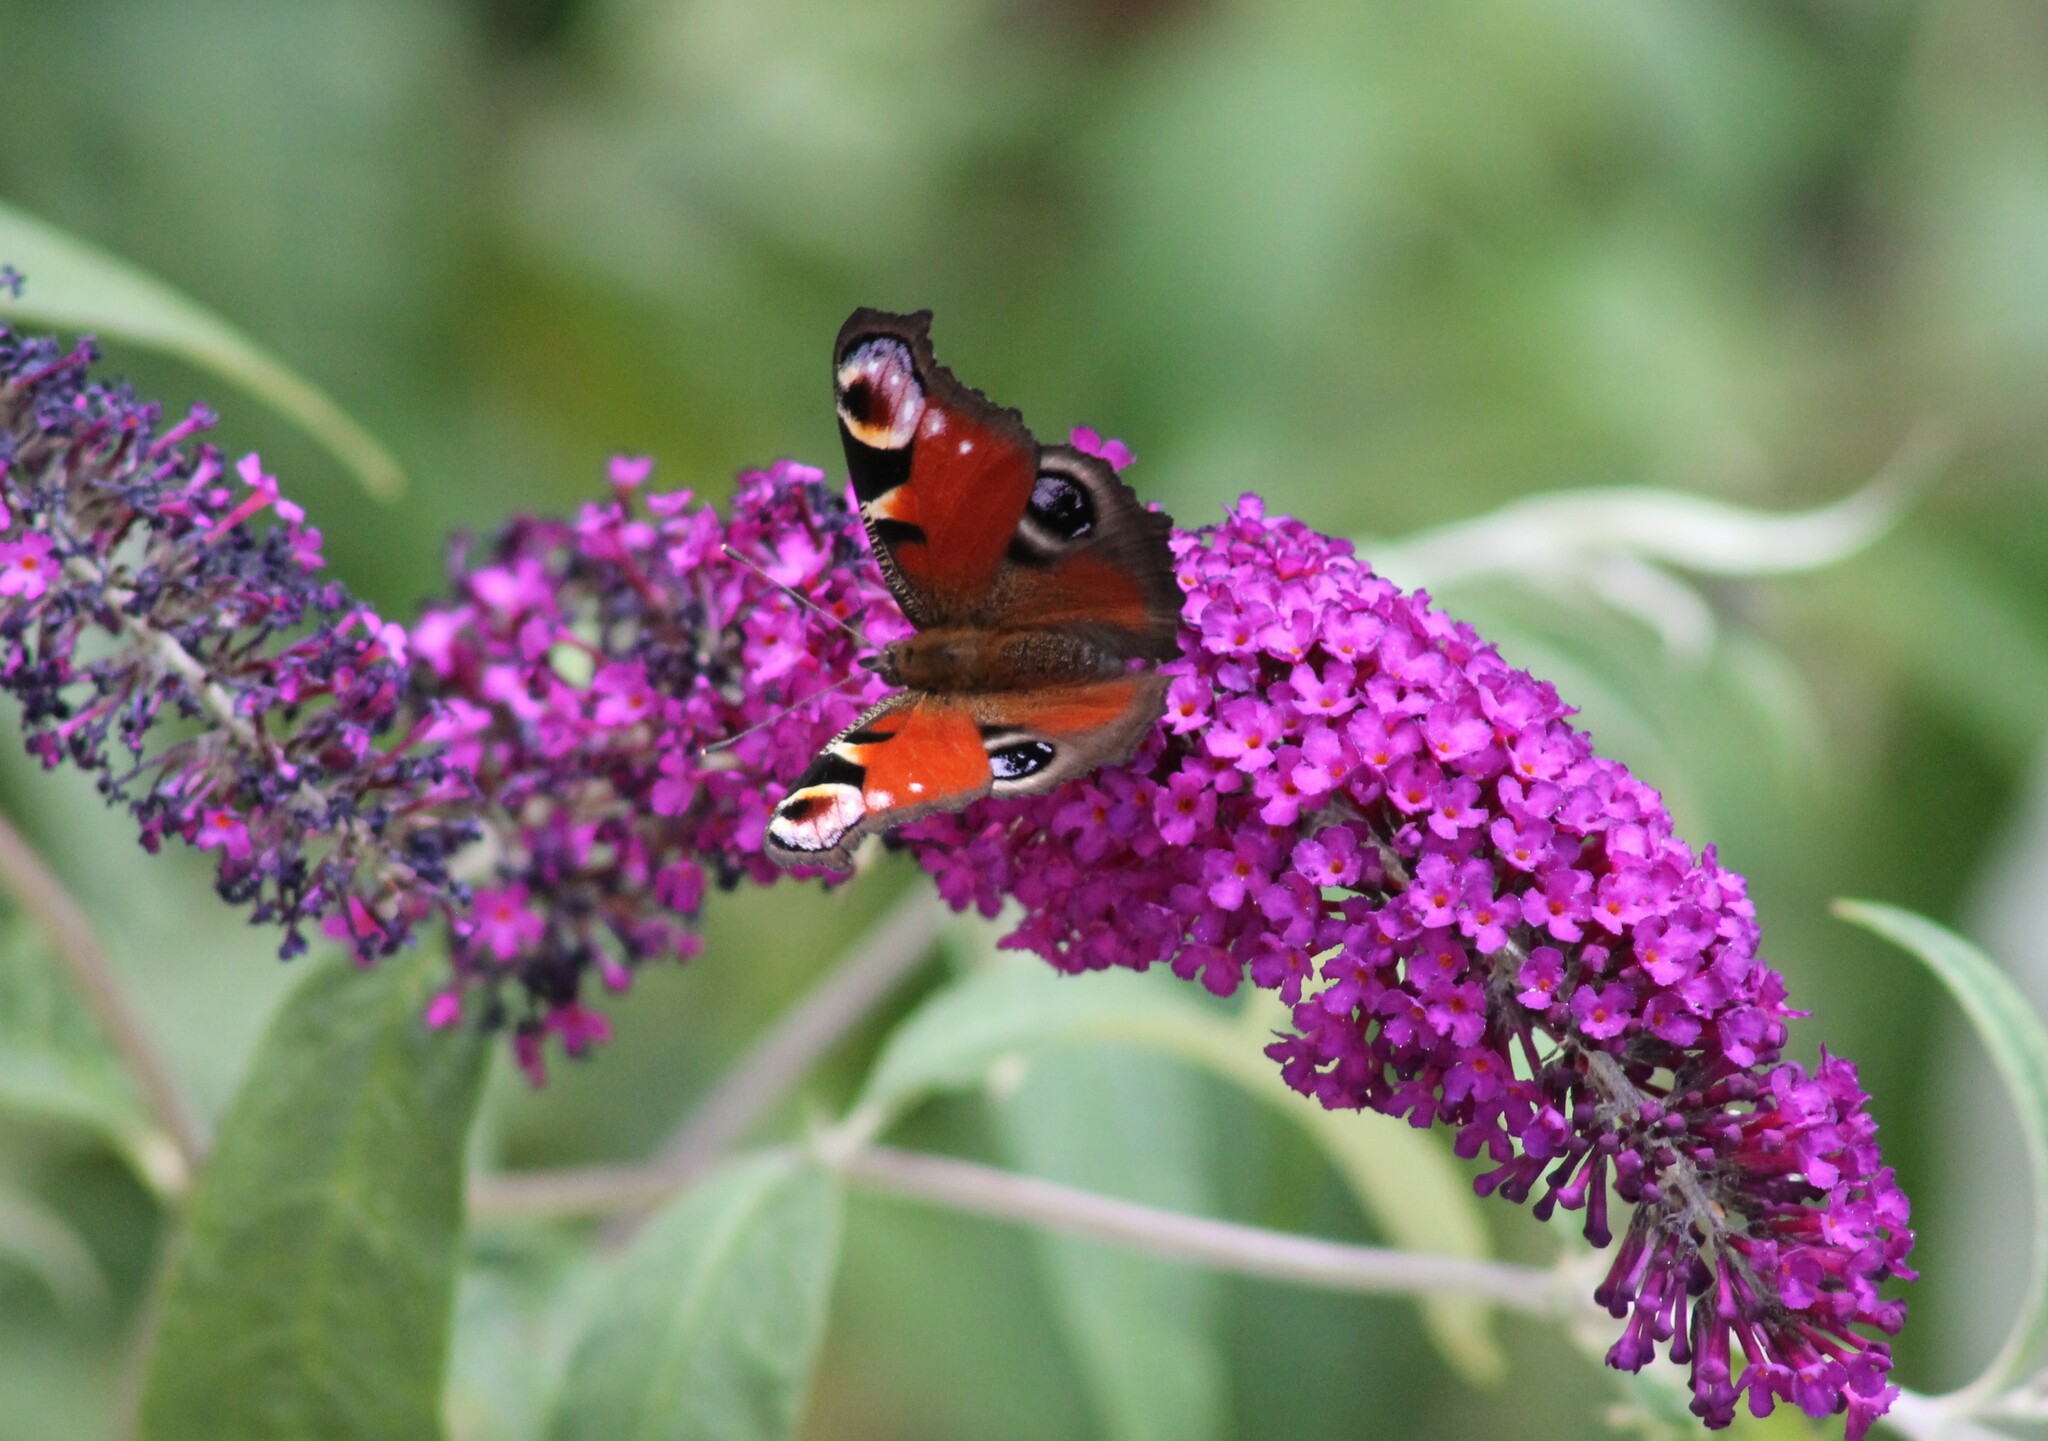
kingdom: Animalia
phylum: Arthropoda
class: Insecta
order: Lepidoptera
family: Nymphalidae
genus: Aglais
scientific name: Aglais io
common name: Peacock
